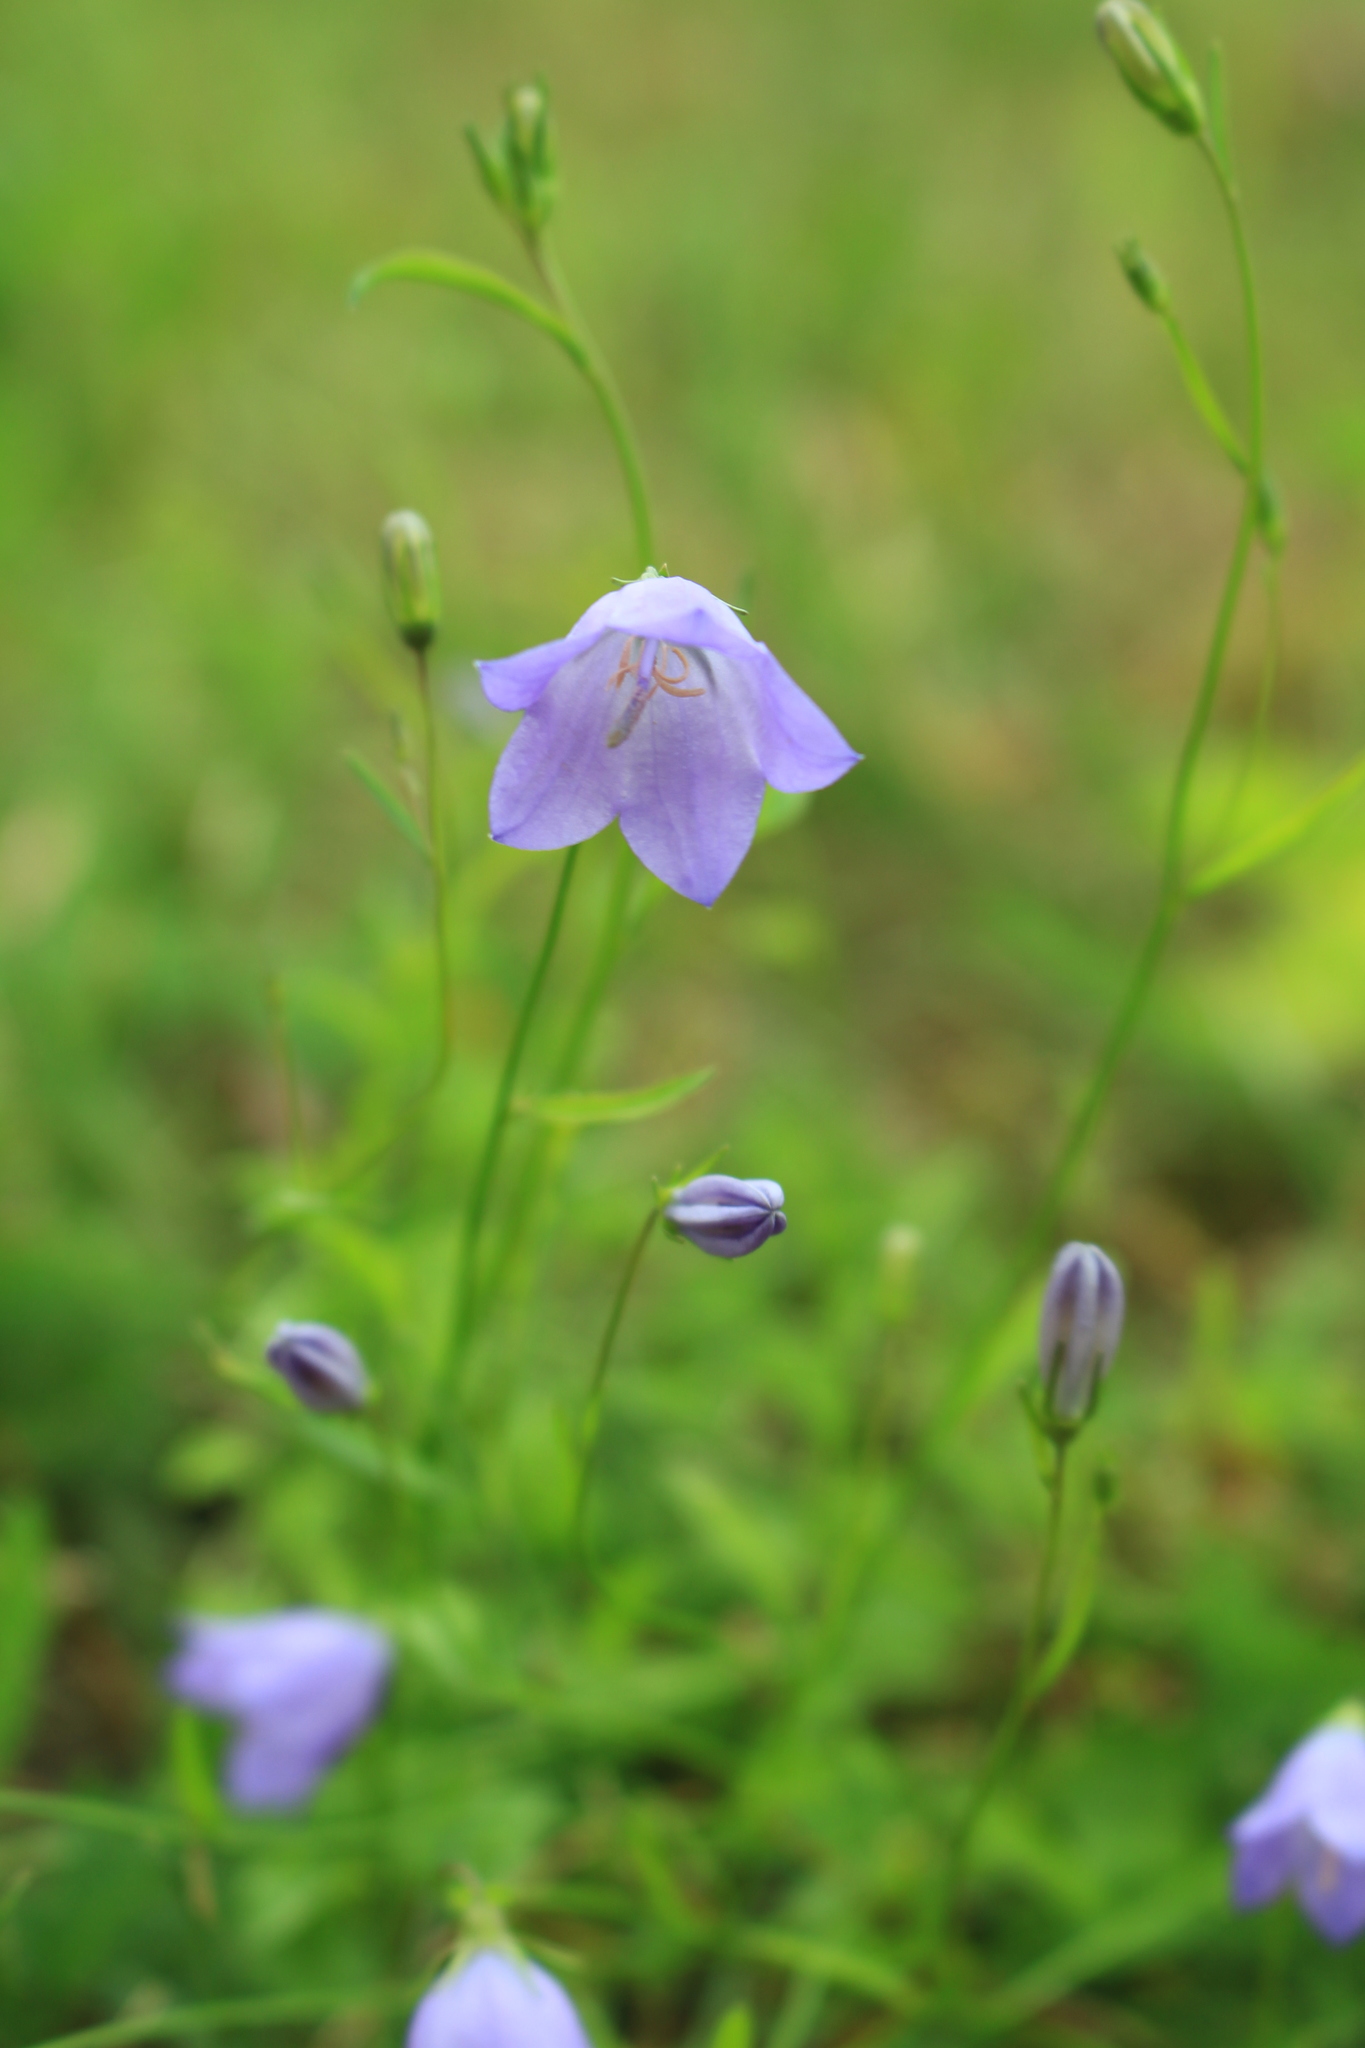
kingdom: Plantae
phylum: Tracheophyta
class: Magnoliopsida
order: Asterales
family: Campanulaceae
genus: Campanula
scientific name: Campanula rotundifolia
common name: Harebell
